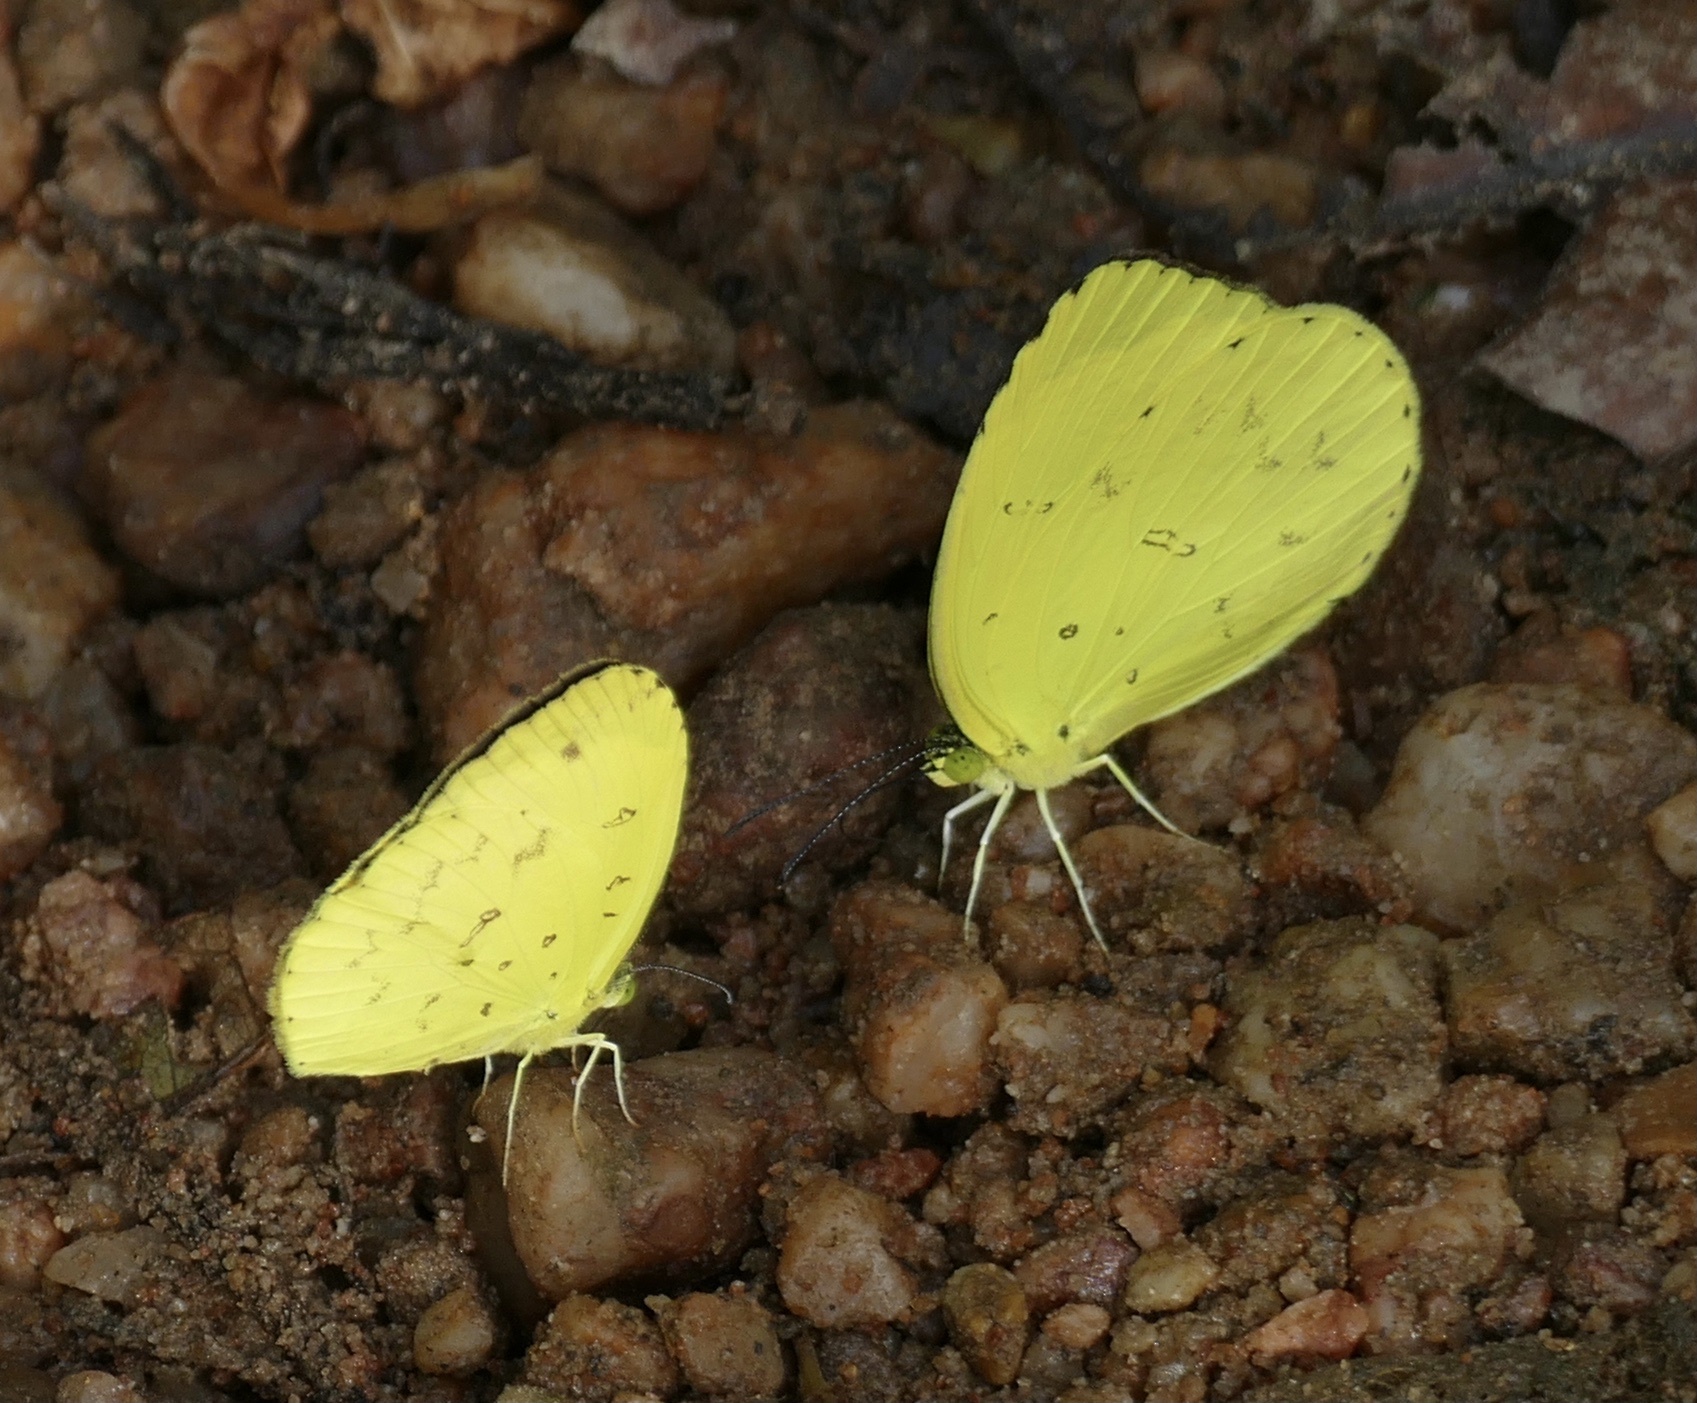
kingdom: Animalia
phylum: Arthropoda
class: Insecta
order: Lepidoptera
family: Pieridae
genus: Eurema
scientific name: Eurema senegalensis
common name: Forest grass yellow
